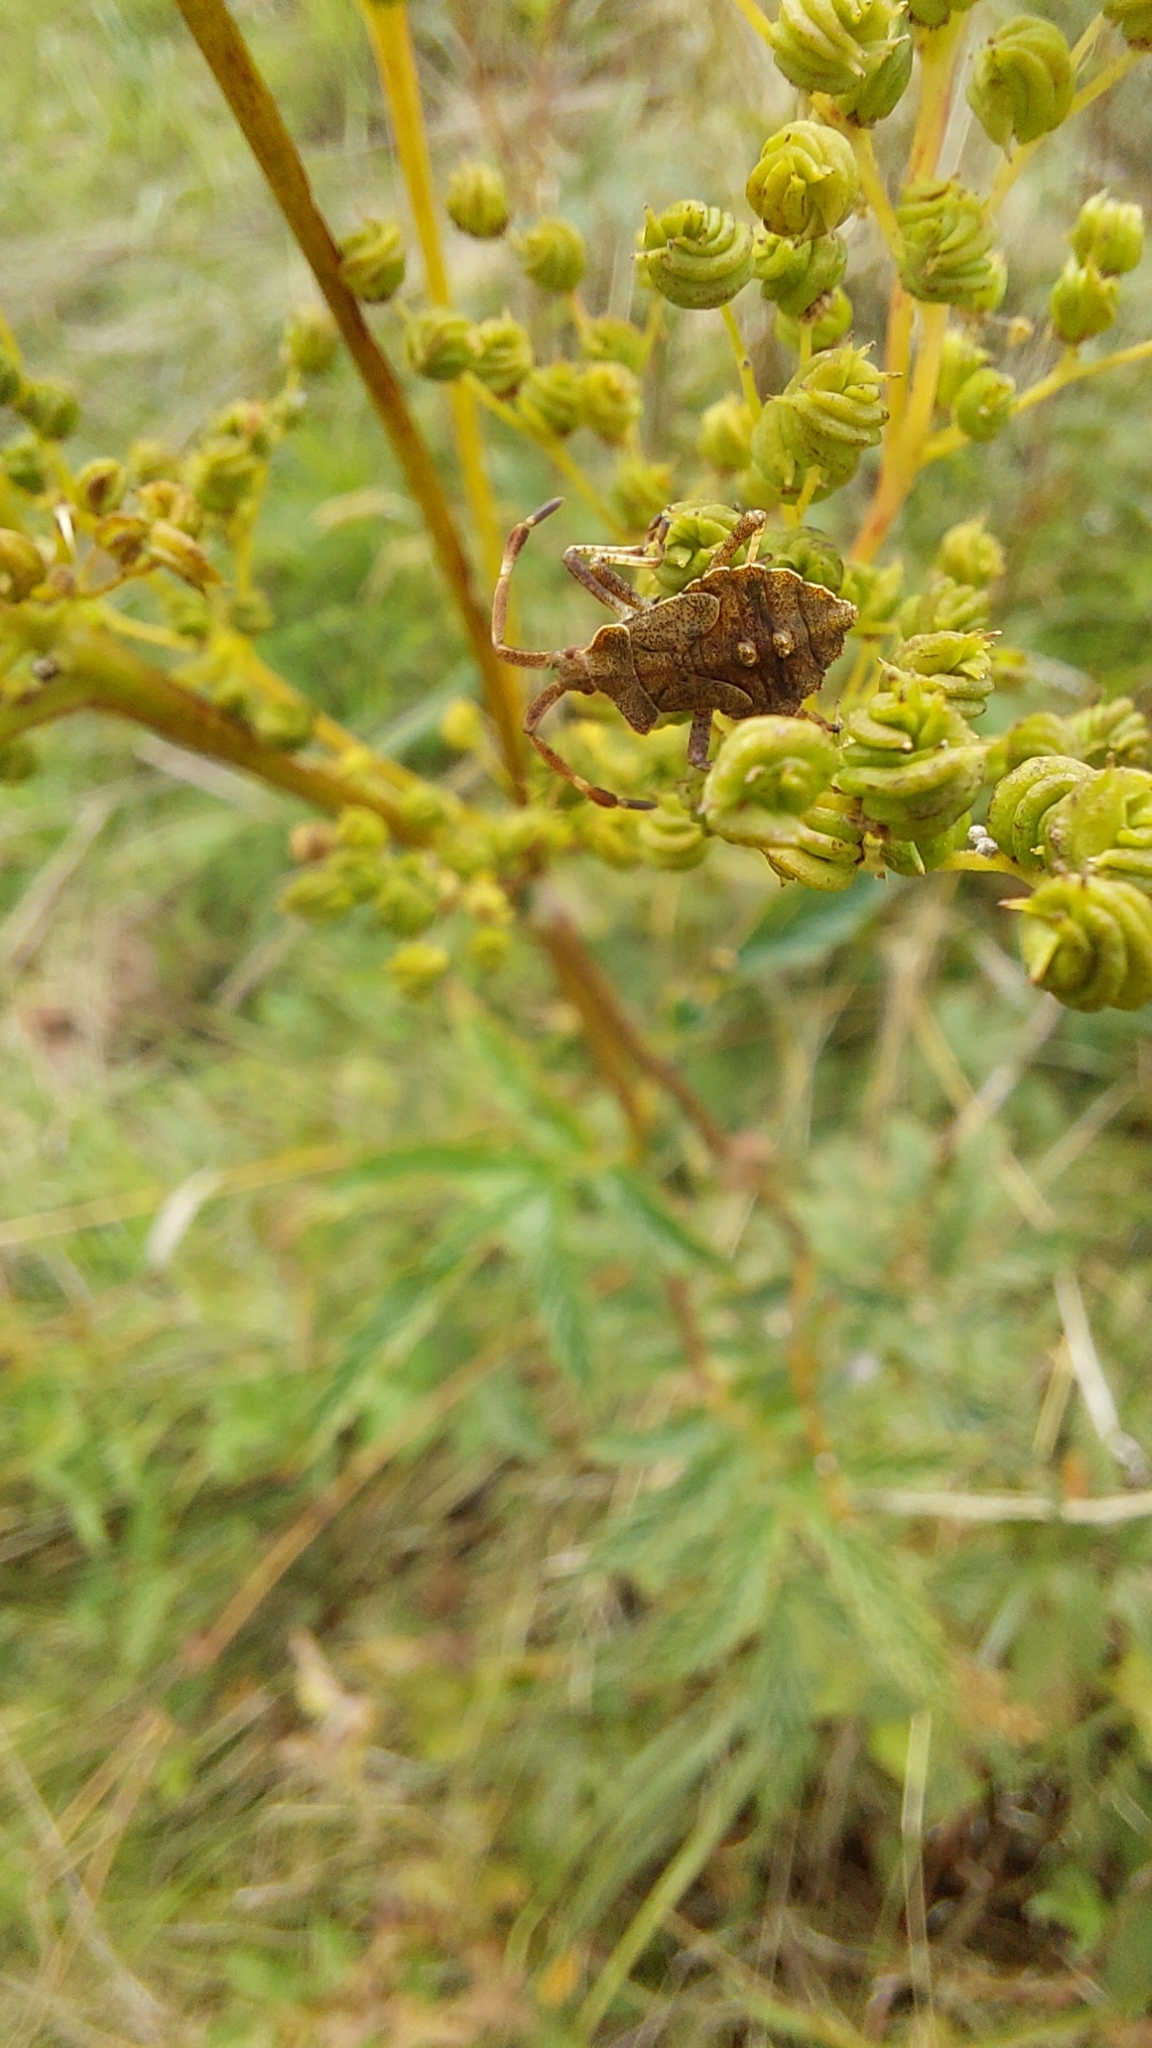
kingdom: Animalia
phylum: Arthropoda
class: Insecta
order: Hemiptera
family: Coreidae
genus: Coreus
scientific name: Coreus marginatus
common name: Dock bug
